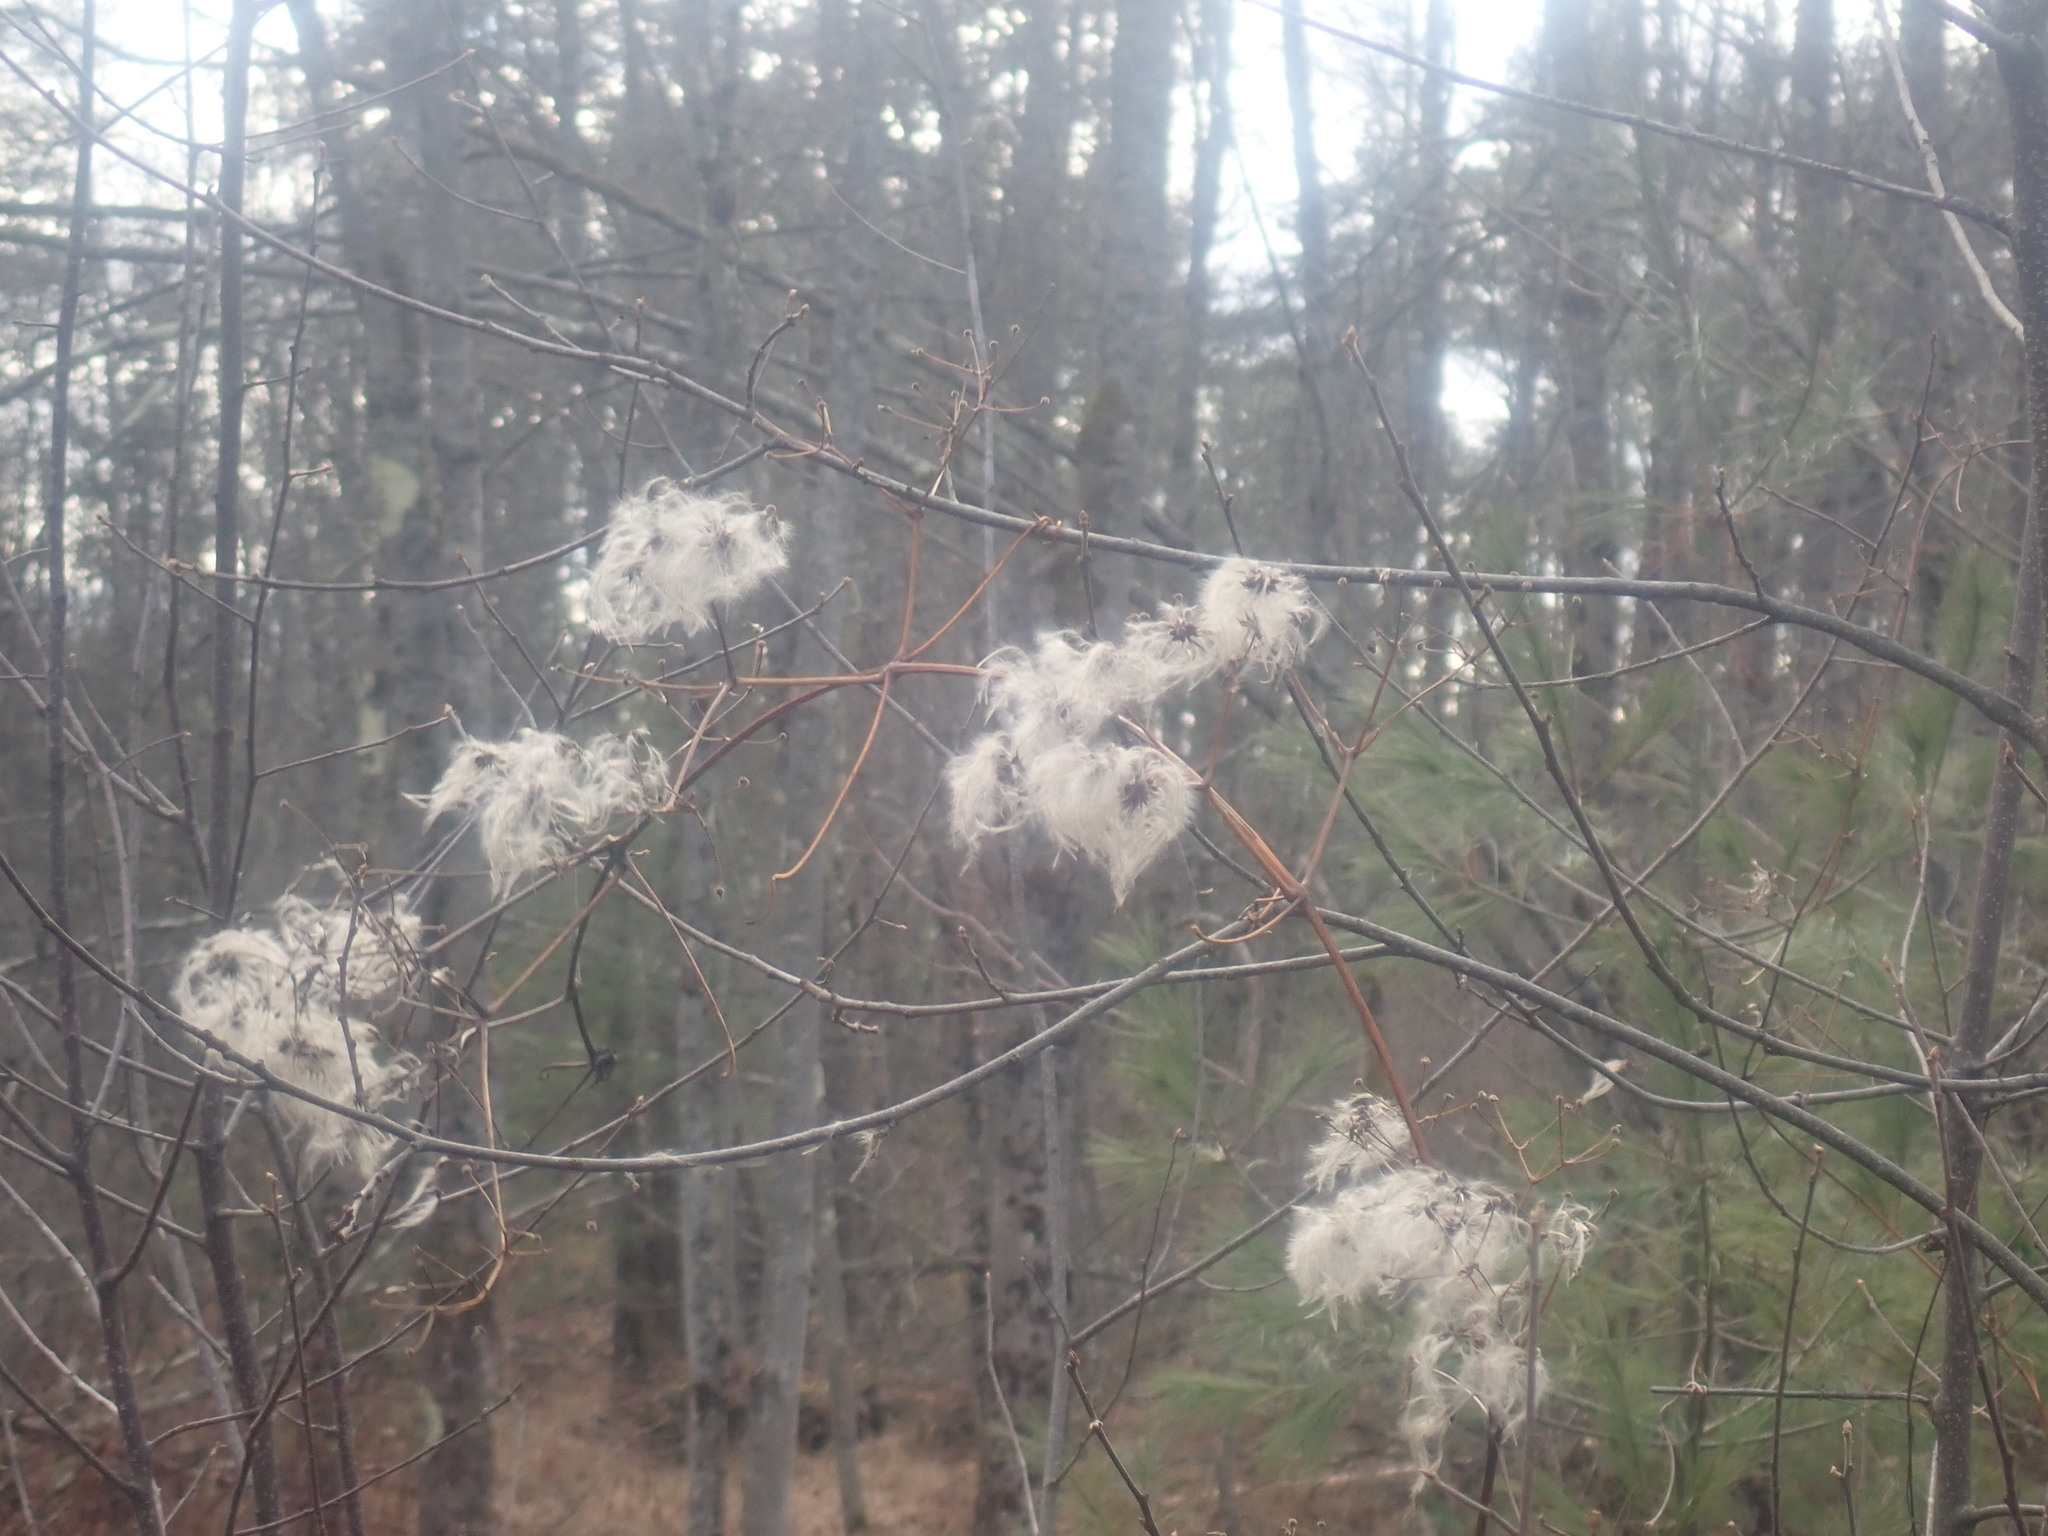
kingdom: Plantae
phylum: Tracheophyta
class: Magnoliopsida
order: Ranunculales
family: Ranunculaceae
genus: Clematis
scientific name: Clematis virginiana
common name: Virgin's-bower
